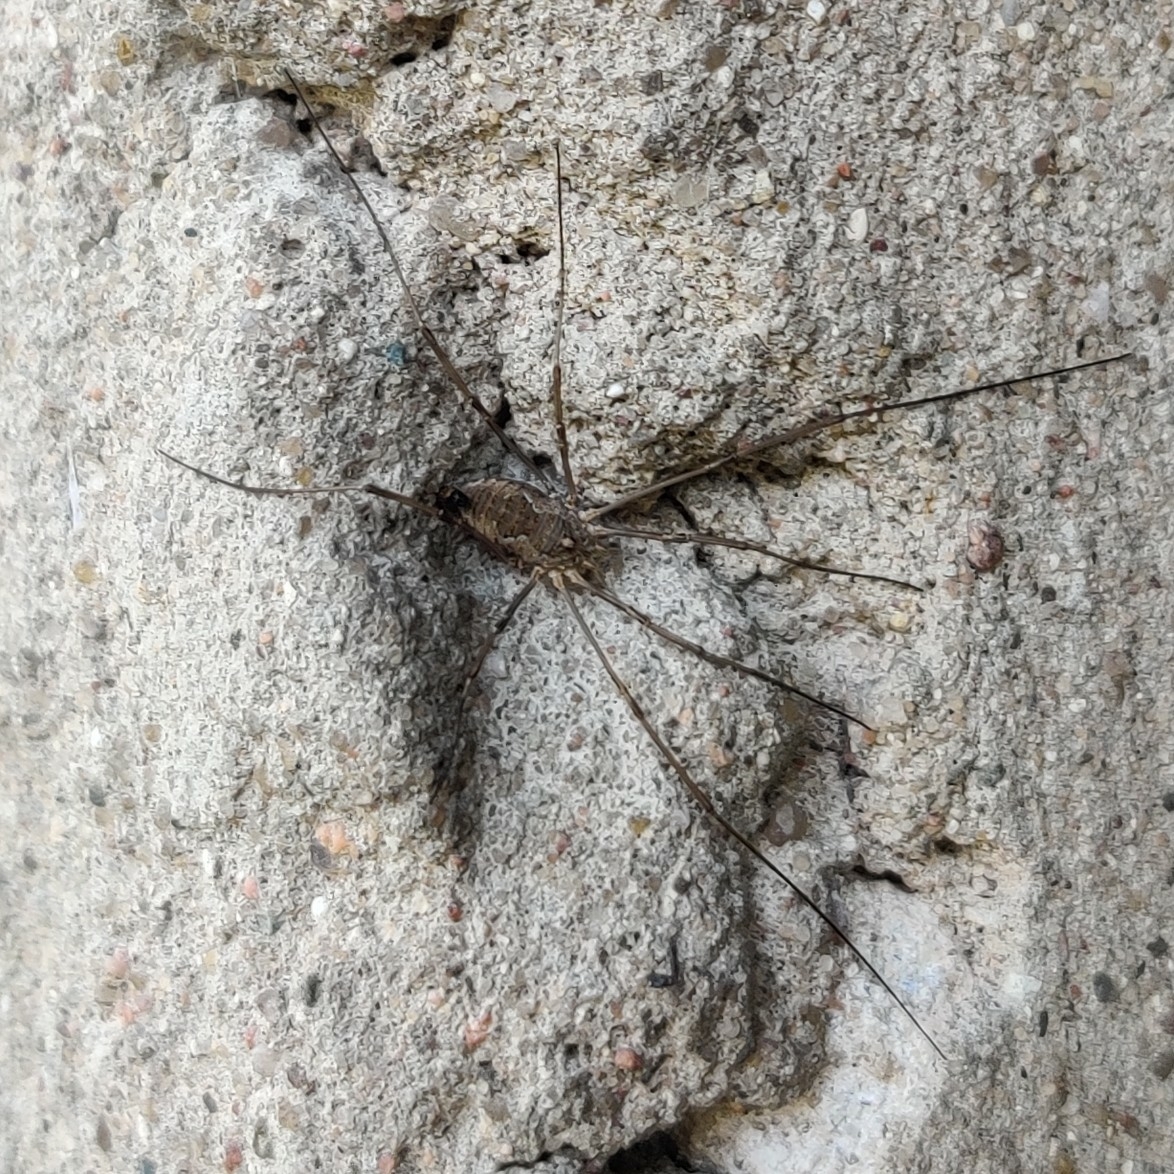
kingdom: Animalia
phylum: Arthropoda
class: Arachnida
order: Opiliones
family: Phalangiidae
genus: Phalangium
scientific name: Phalangium opilio
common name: Daddy longleg
